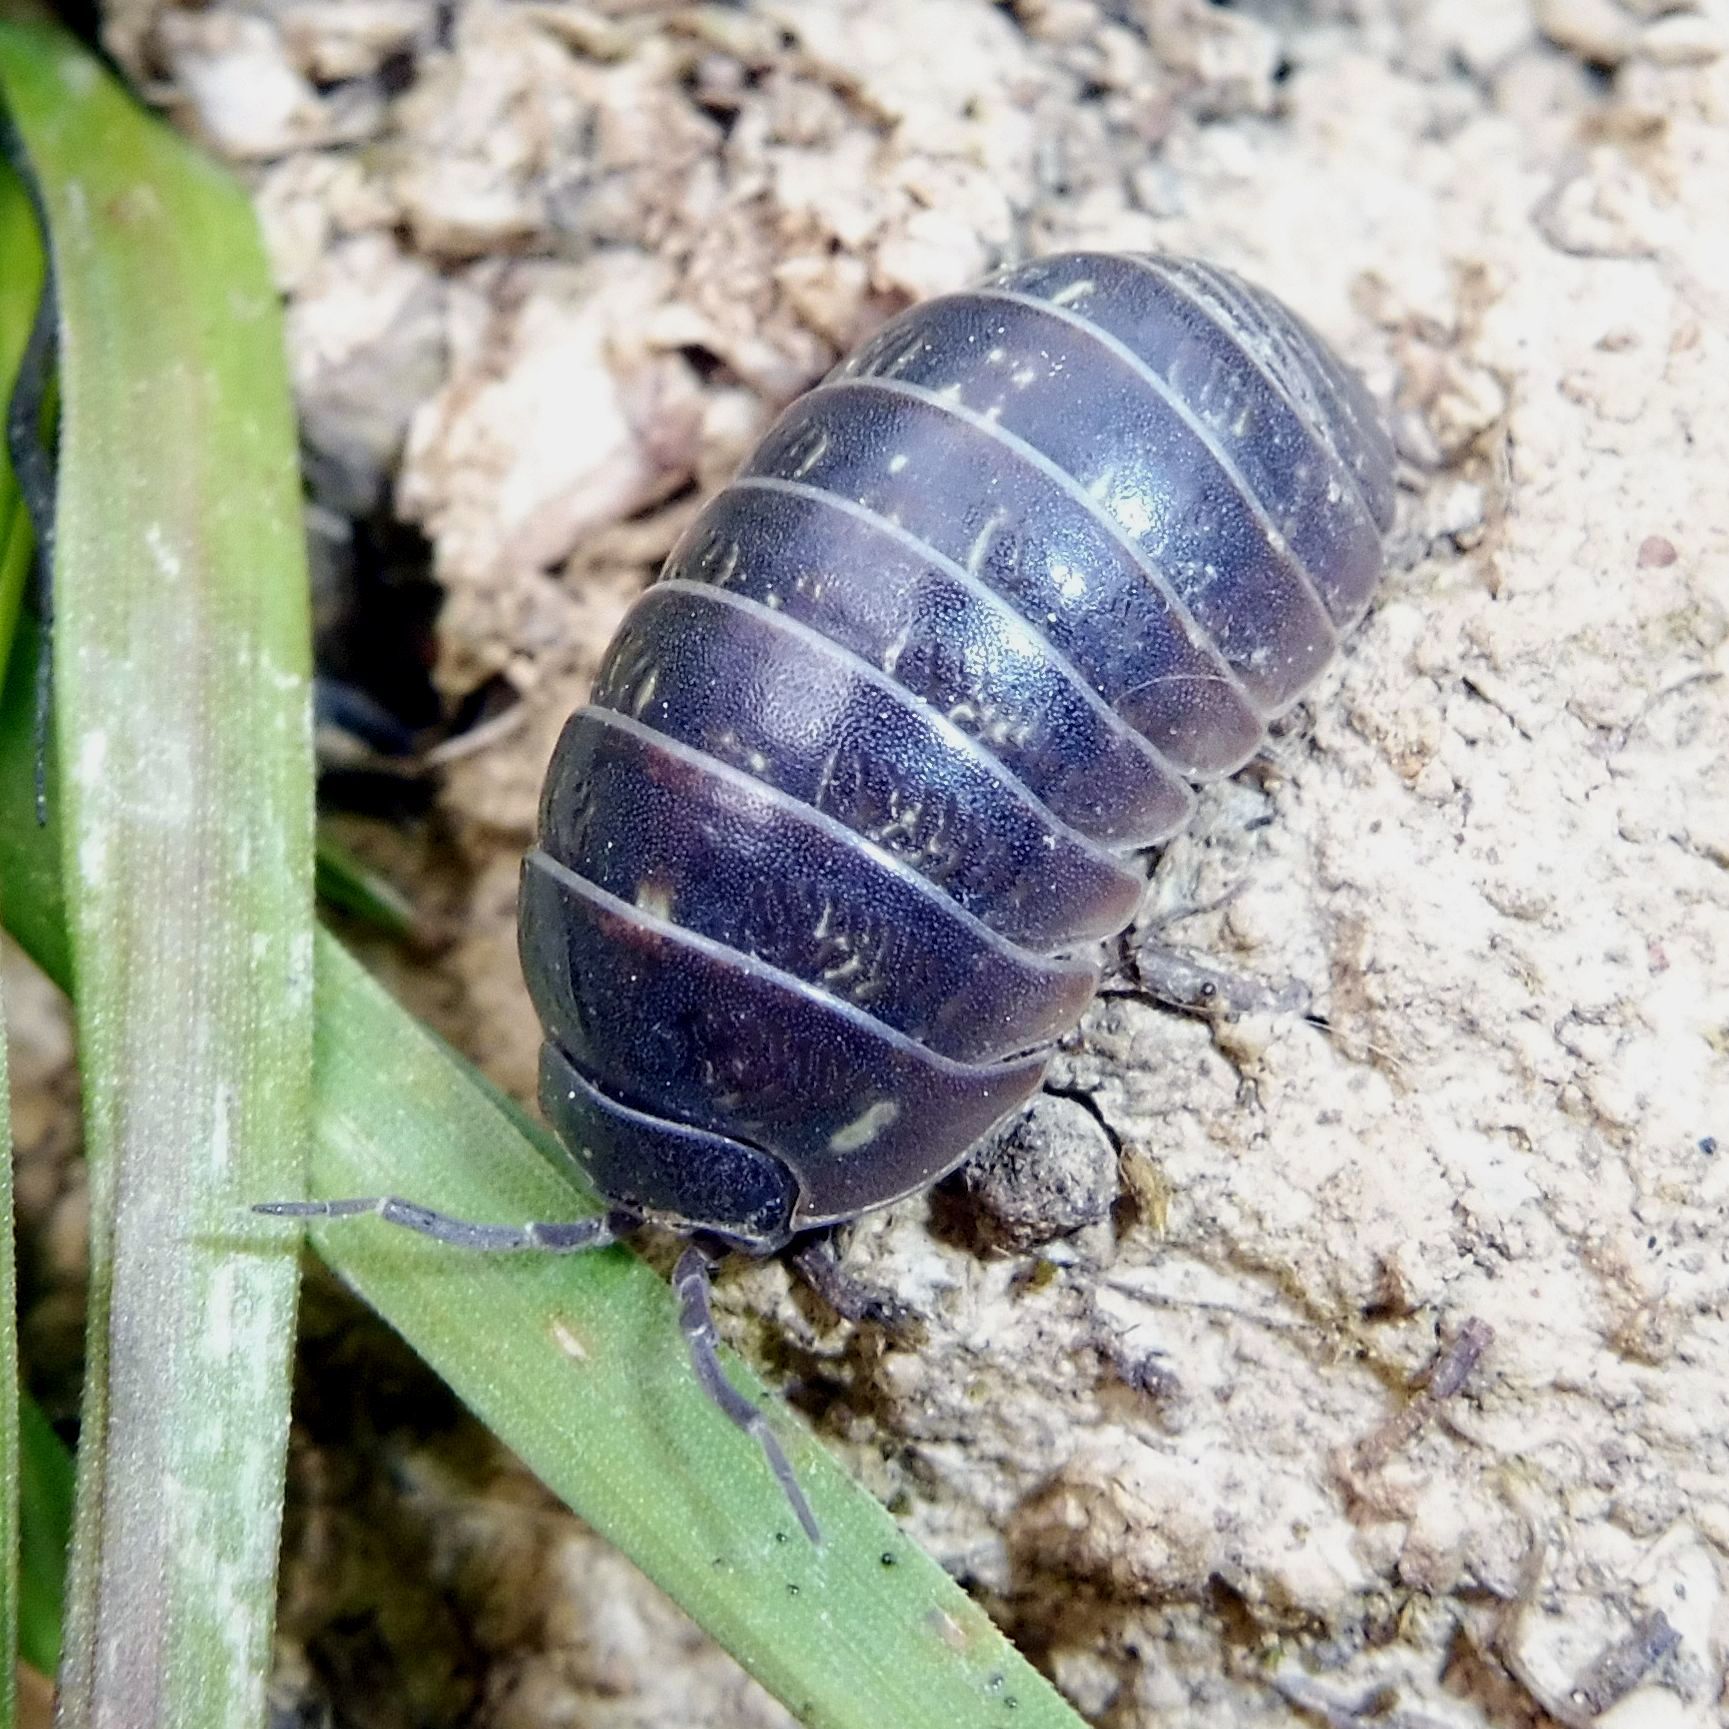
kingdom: Animalia
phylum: Arthropoda
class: Malacostraca
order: Isopoda
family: Armadillidiidae
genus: Armadillidium
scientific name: Armadillidium vulgare
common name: Common pill woodlouse
